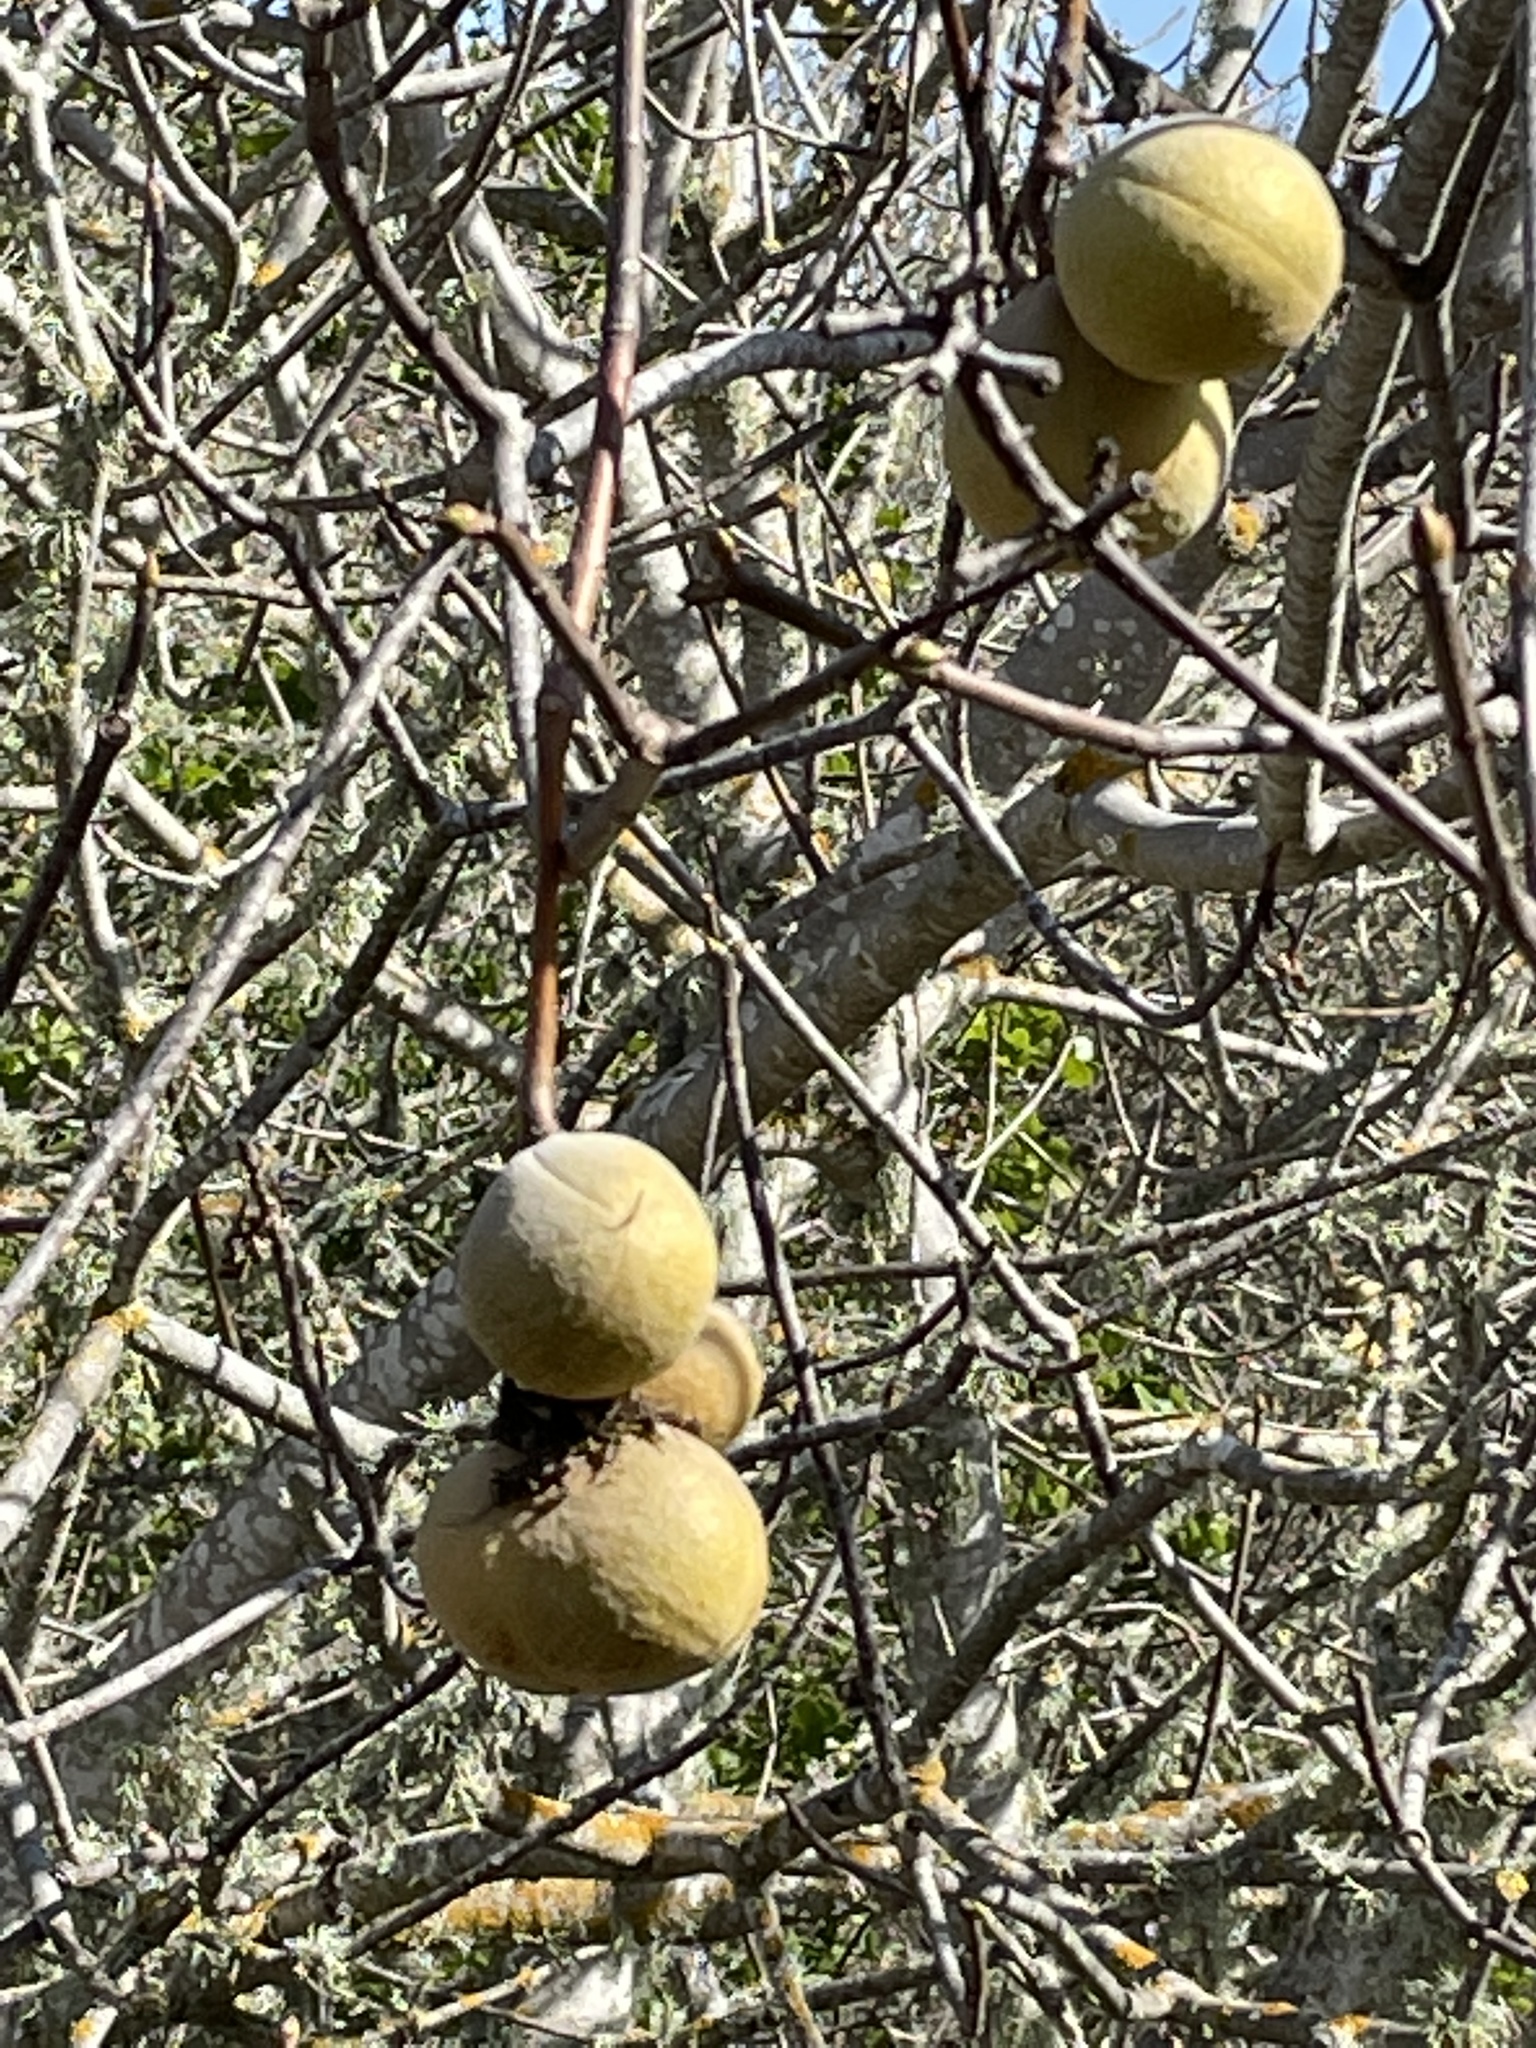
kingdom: Plantae
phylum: Tracheophyta
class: Magnoliopsida
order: Sapindales
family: Sapindaceae
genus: Aesculus
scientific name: Aesculus californica
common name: California buckeye
